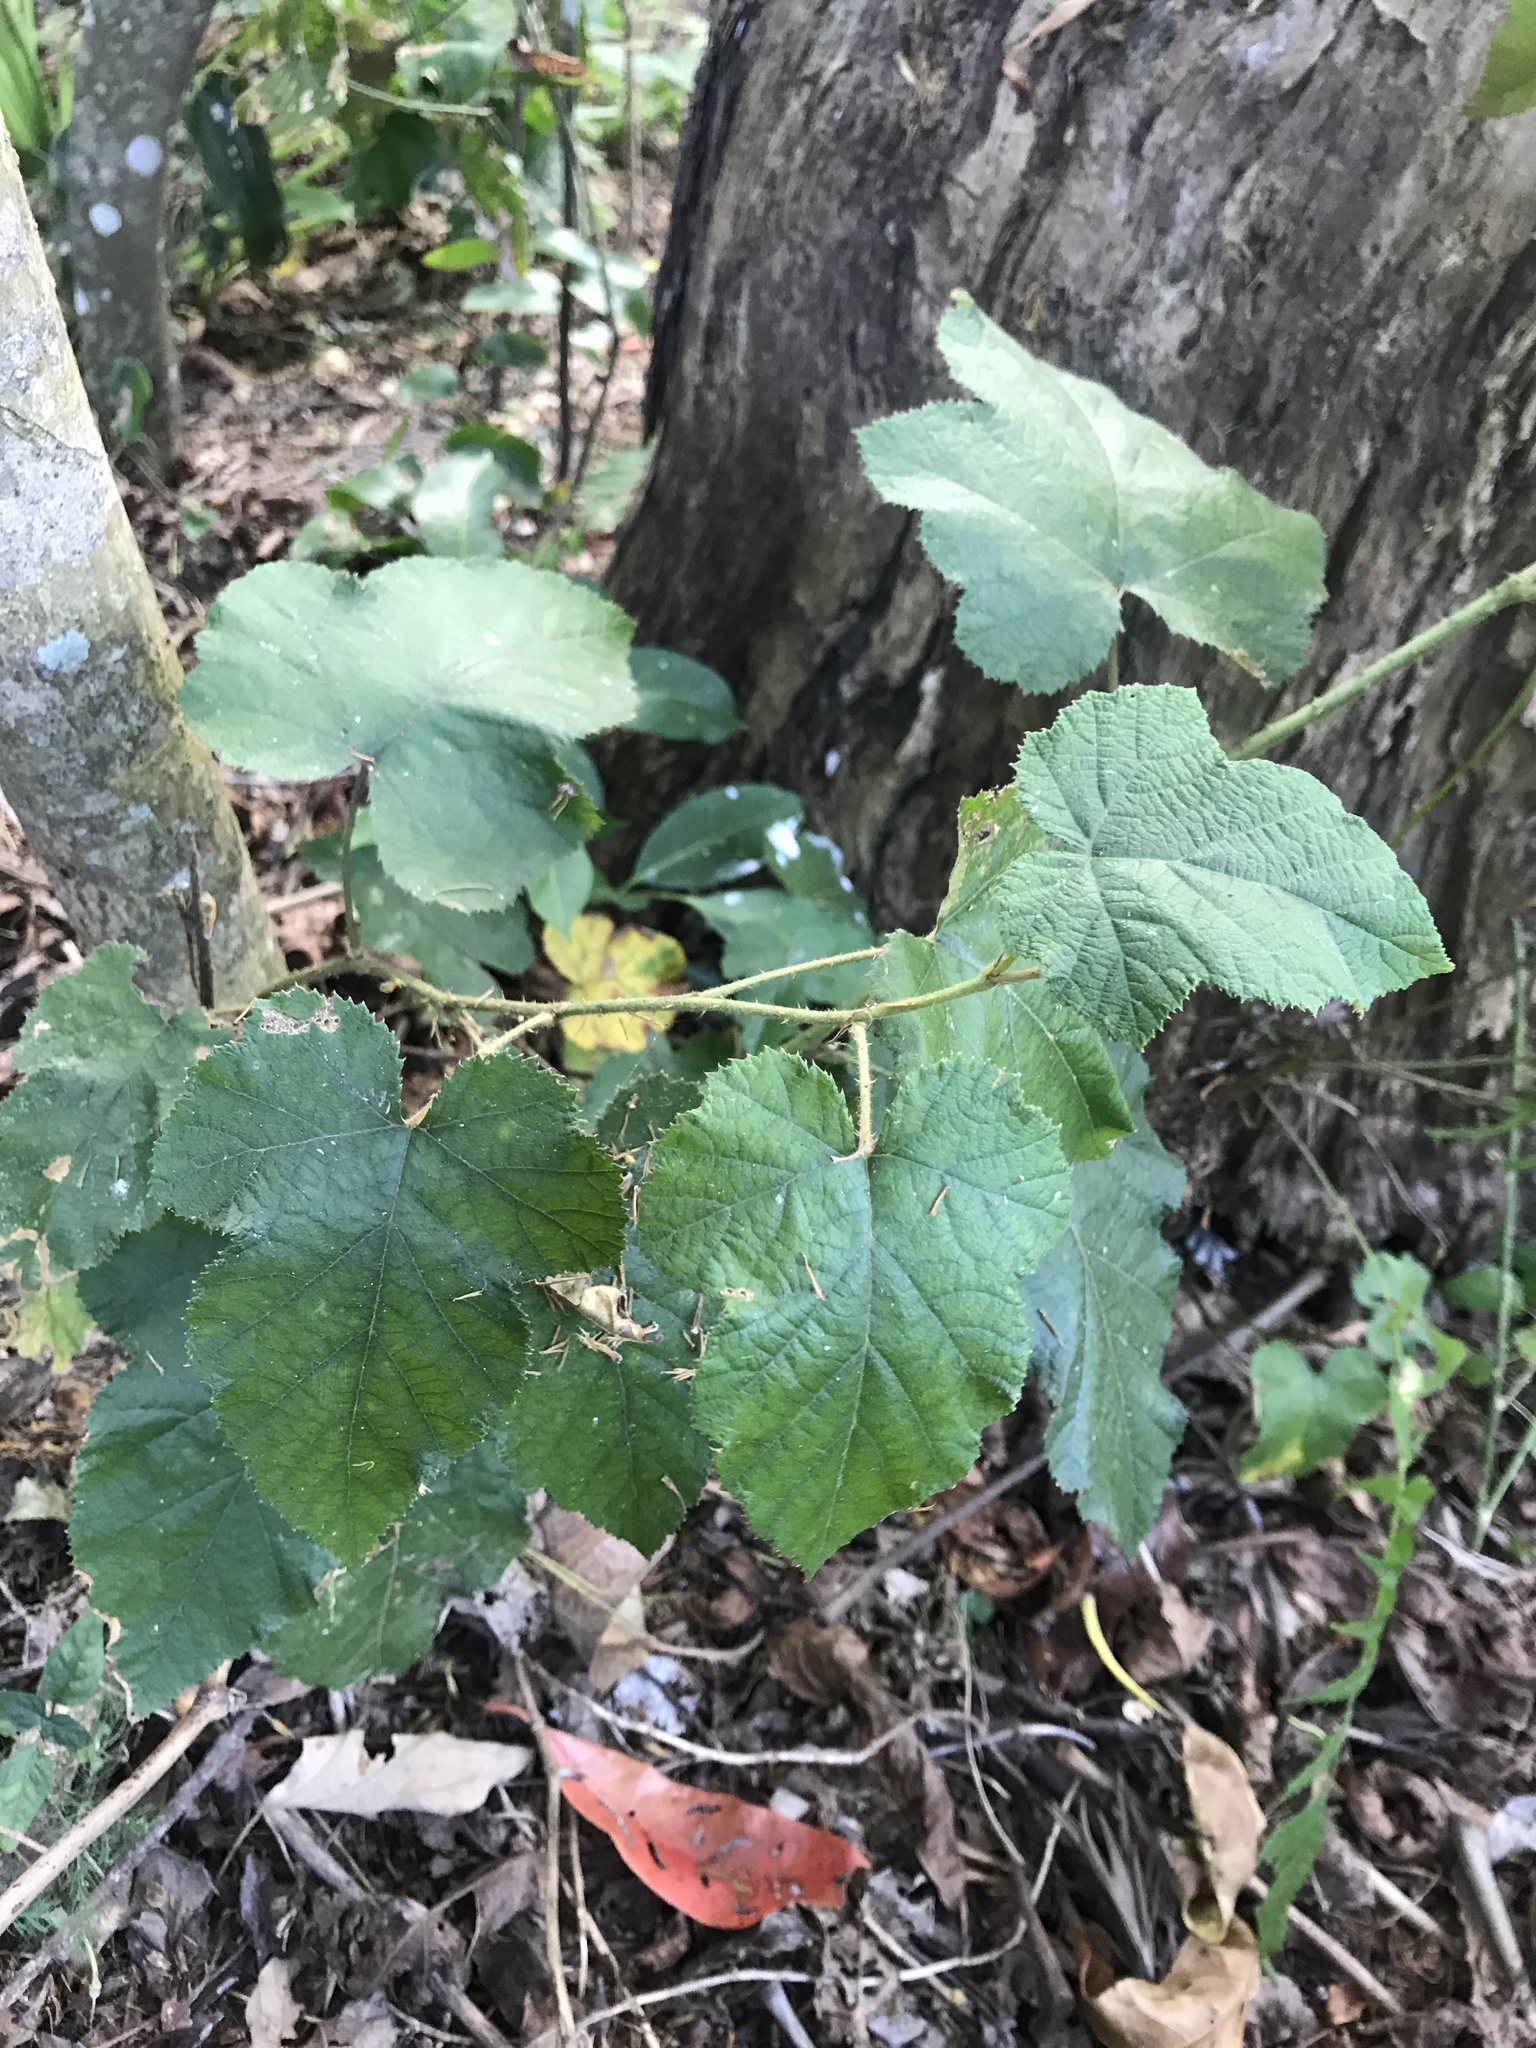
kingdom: Plantae
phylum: Tracheophyta
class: Magnoliopsida
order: Rosales
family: Rosaceae
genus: Rubus
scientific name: Rubus moluccanus
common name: Wild raspberry
